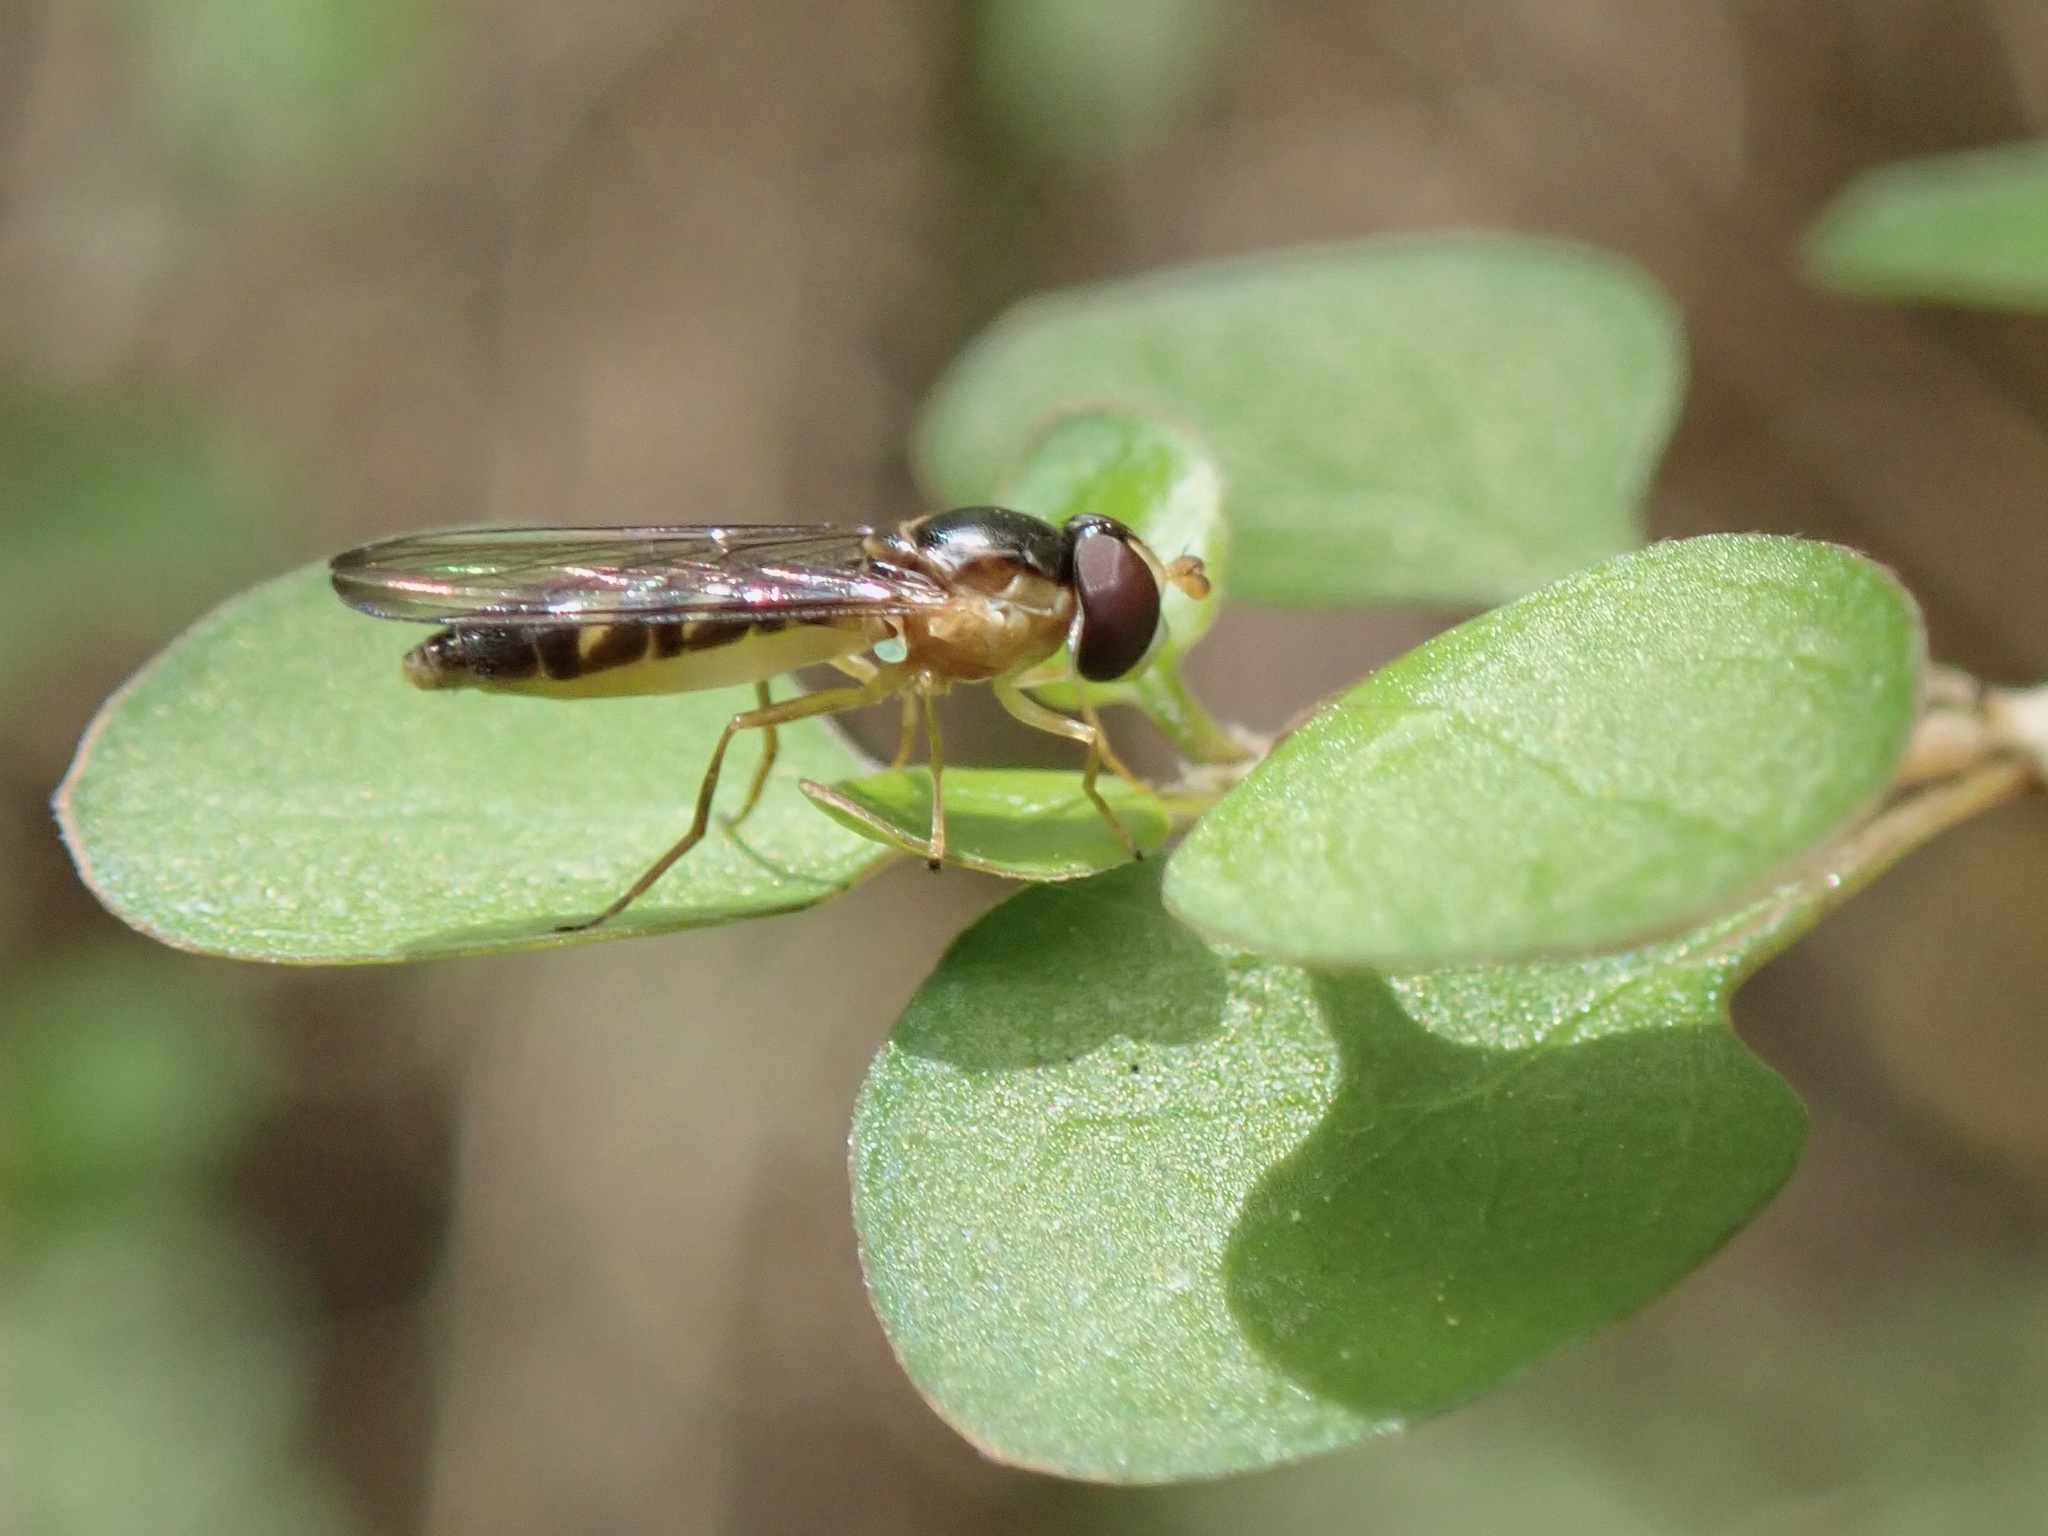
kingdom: Animalia
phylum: Arthropoda
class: Insecta
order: Diptera
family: Syrphidae
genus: Allograpta
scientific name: Allograpta ventralis
